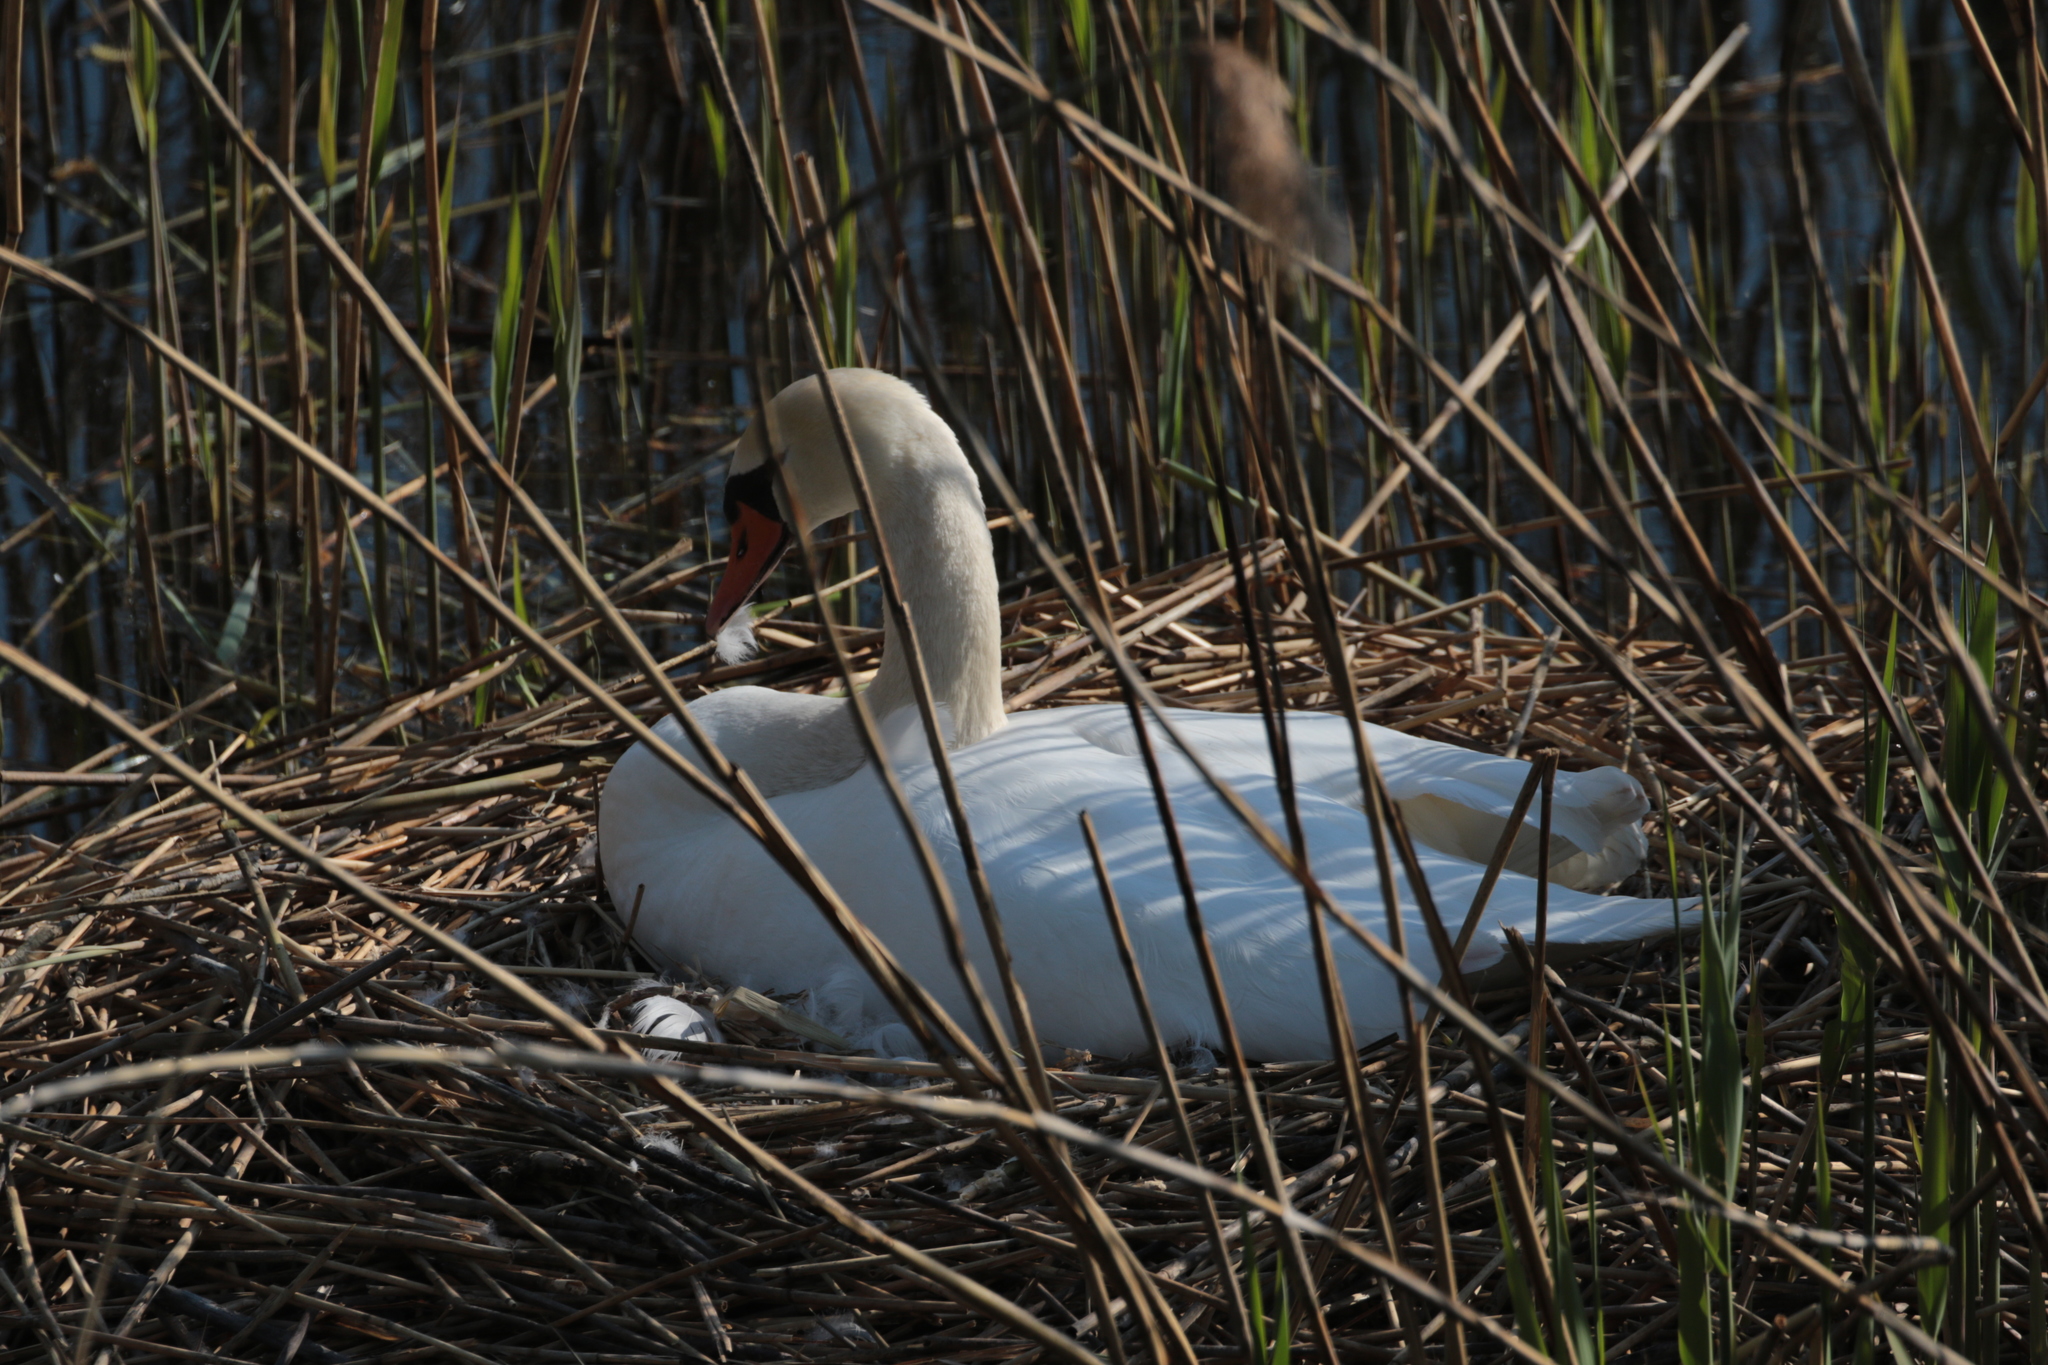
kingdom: Animalia
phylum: Chordata
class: Aves
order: Anseriformes
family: Anatidae
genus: Cygnus
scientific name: Cygnus olor
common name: Mute swan
